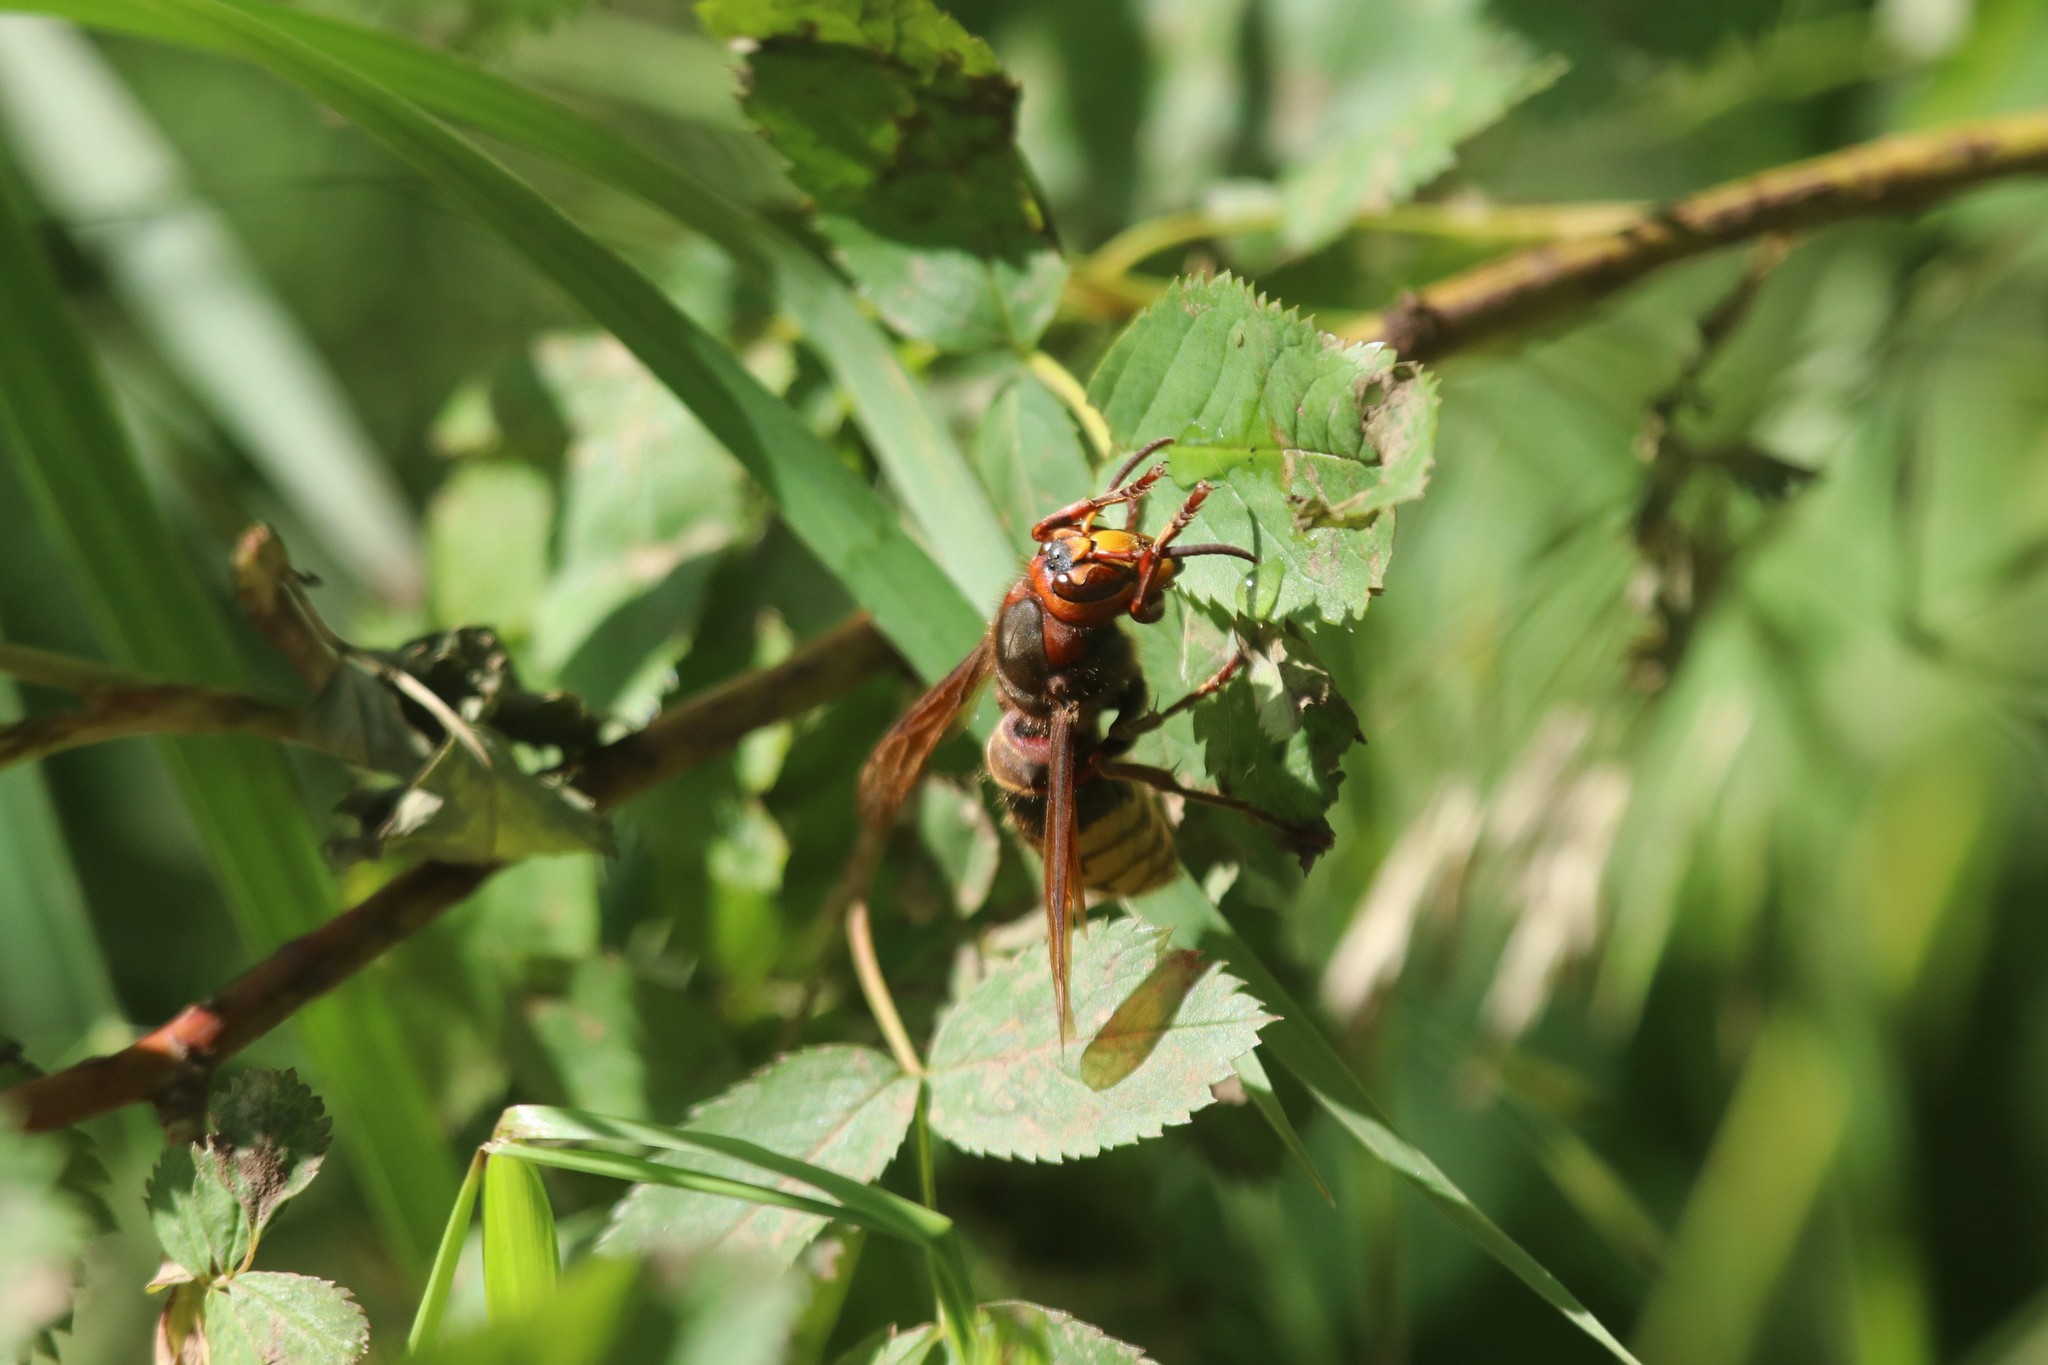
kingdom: Animalia
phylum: Arthropoda
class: Insecta
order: Hymenoptera
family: Vespidae
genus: Vespa
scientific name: Vespa crabro
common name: Hornet
